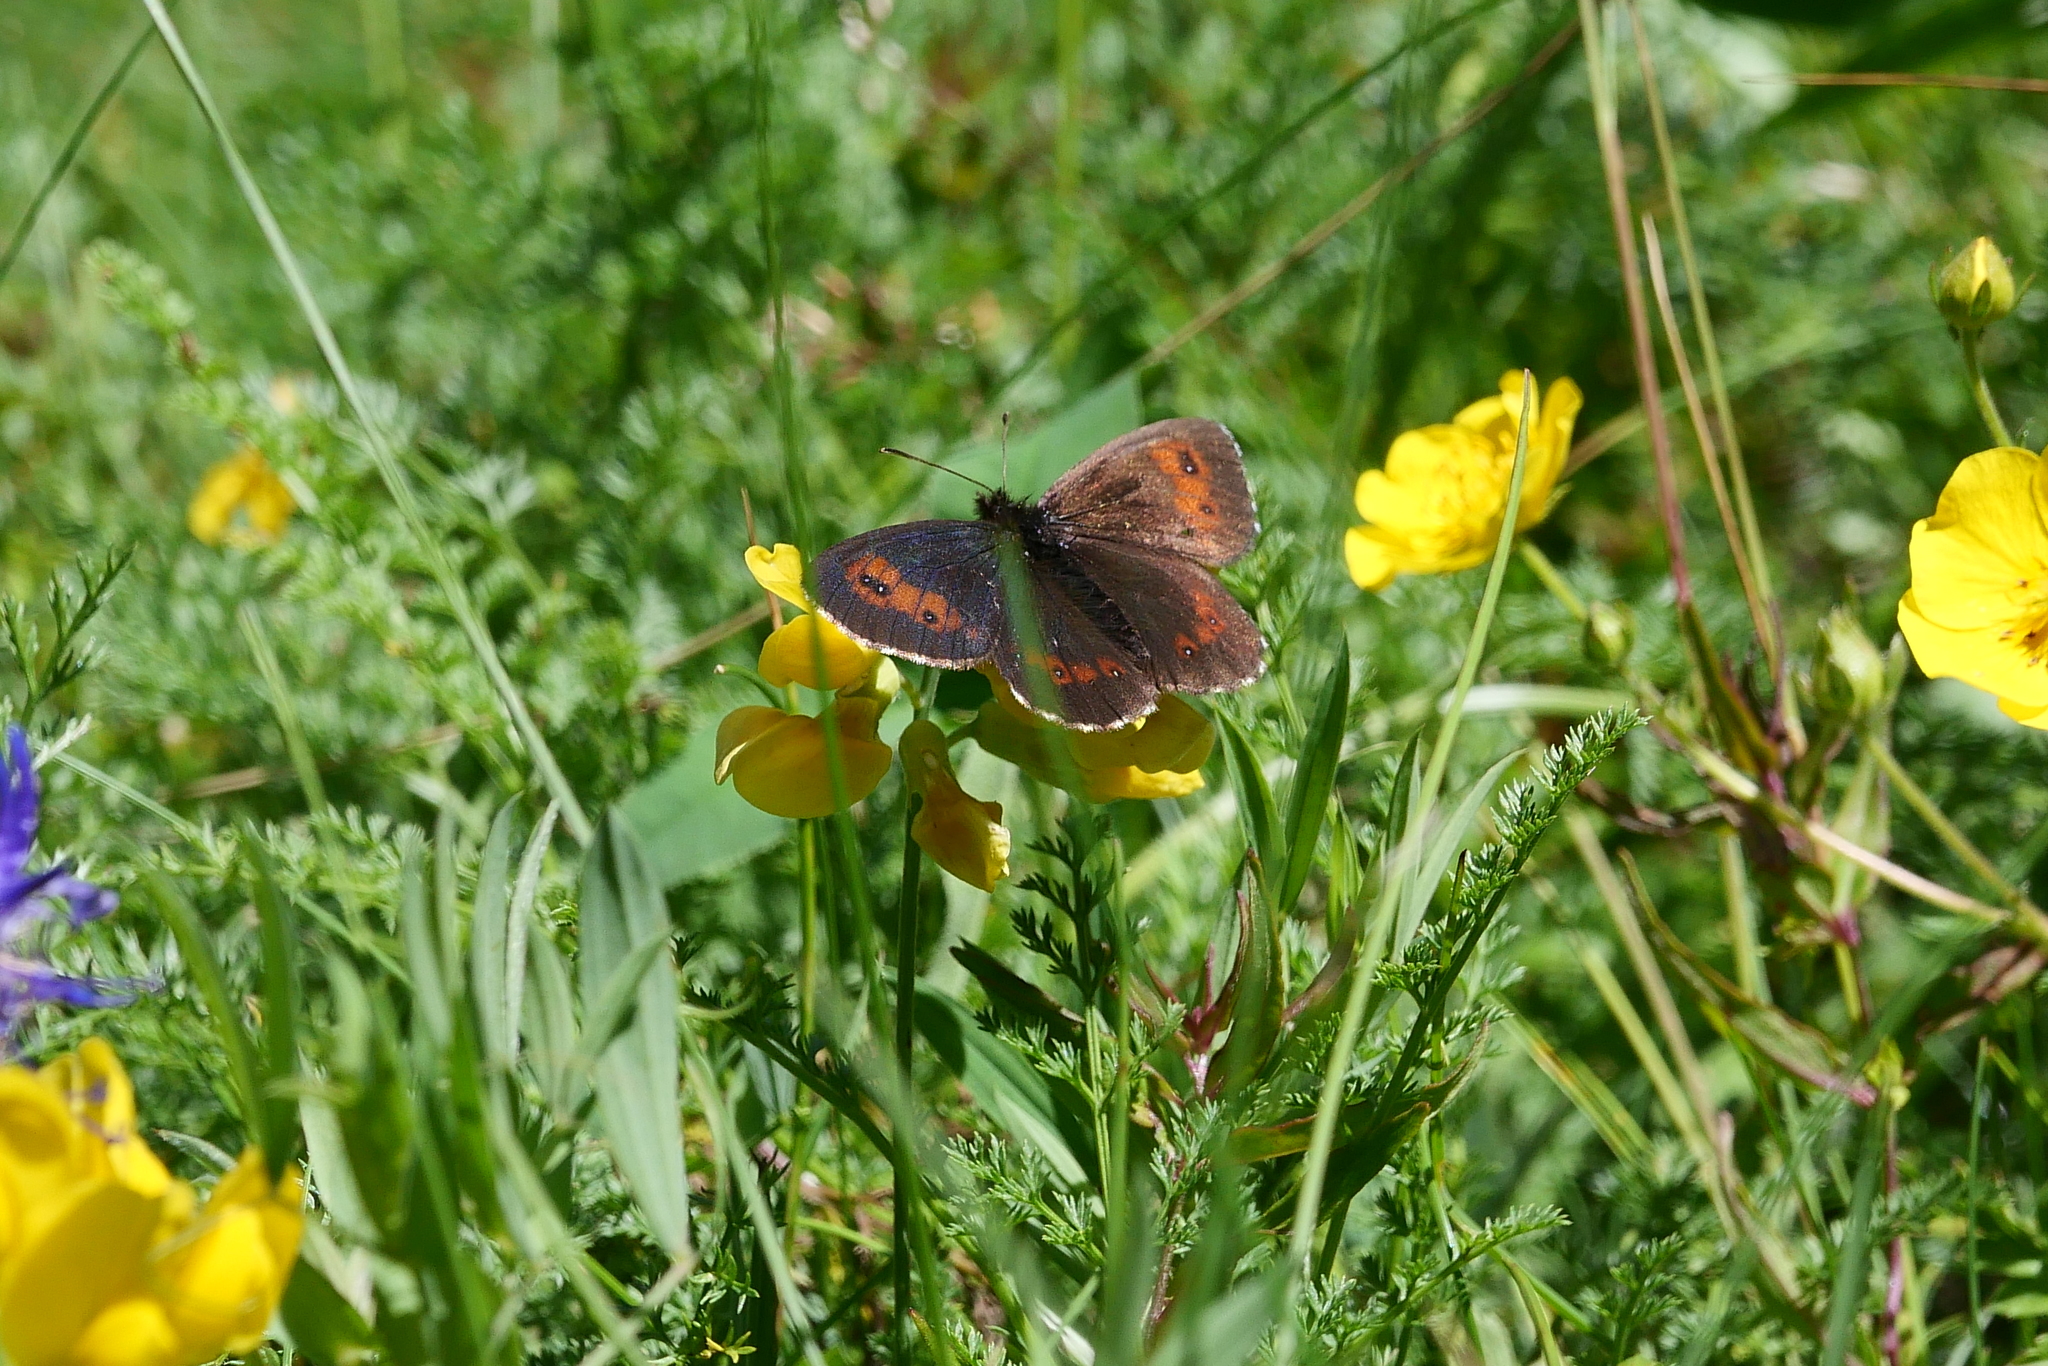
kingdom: Animalia
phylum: Arthropoda
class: Insecta
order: Lepidoptera
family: Nymphalidae
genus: Erebia
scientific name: Erebia euryale
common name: Large ringlet
